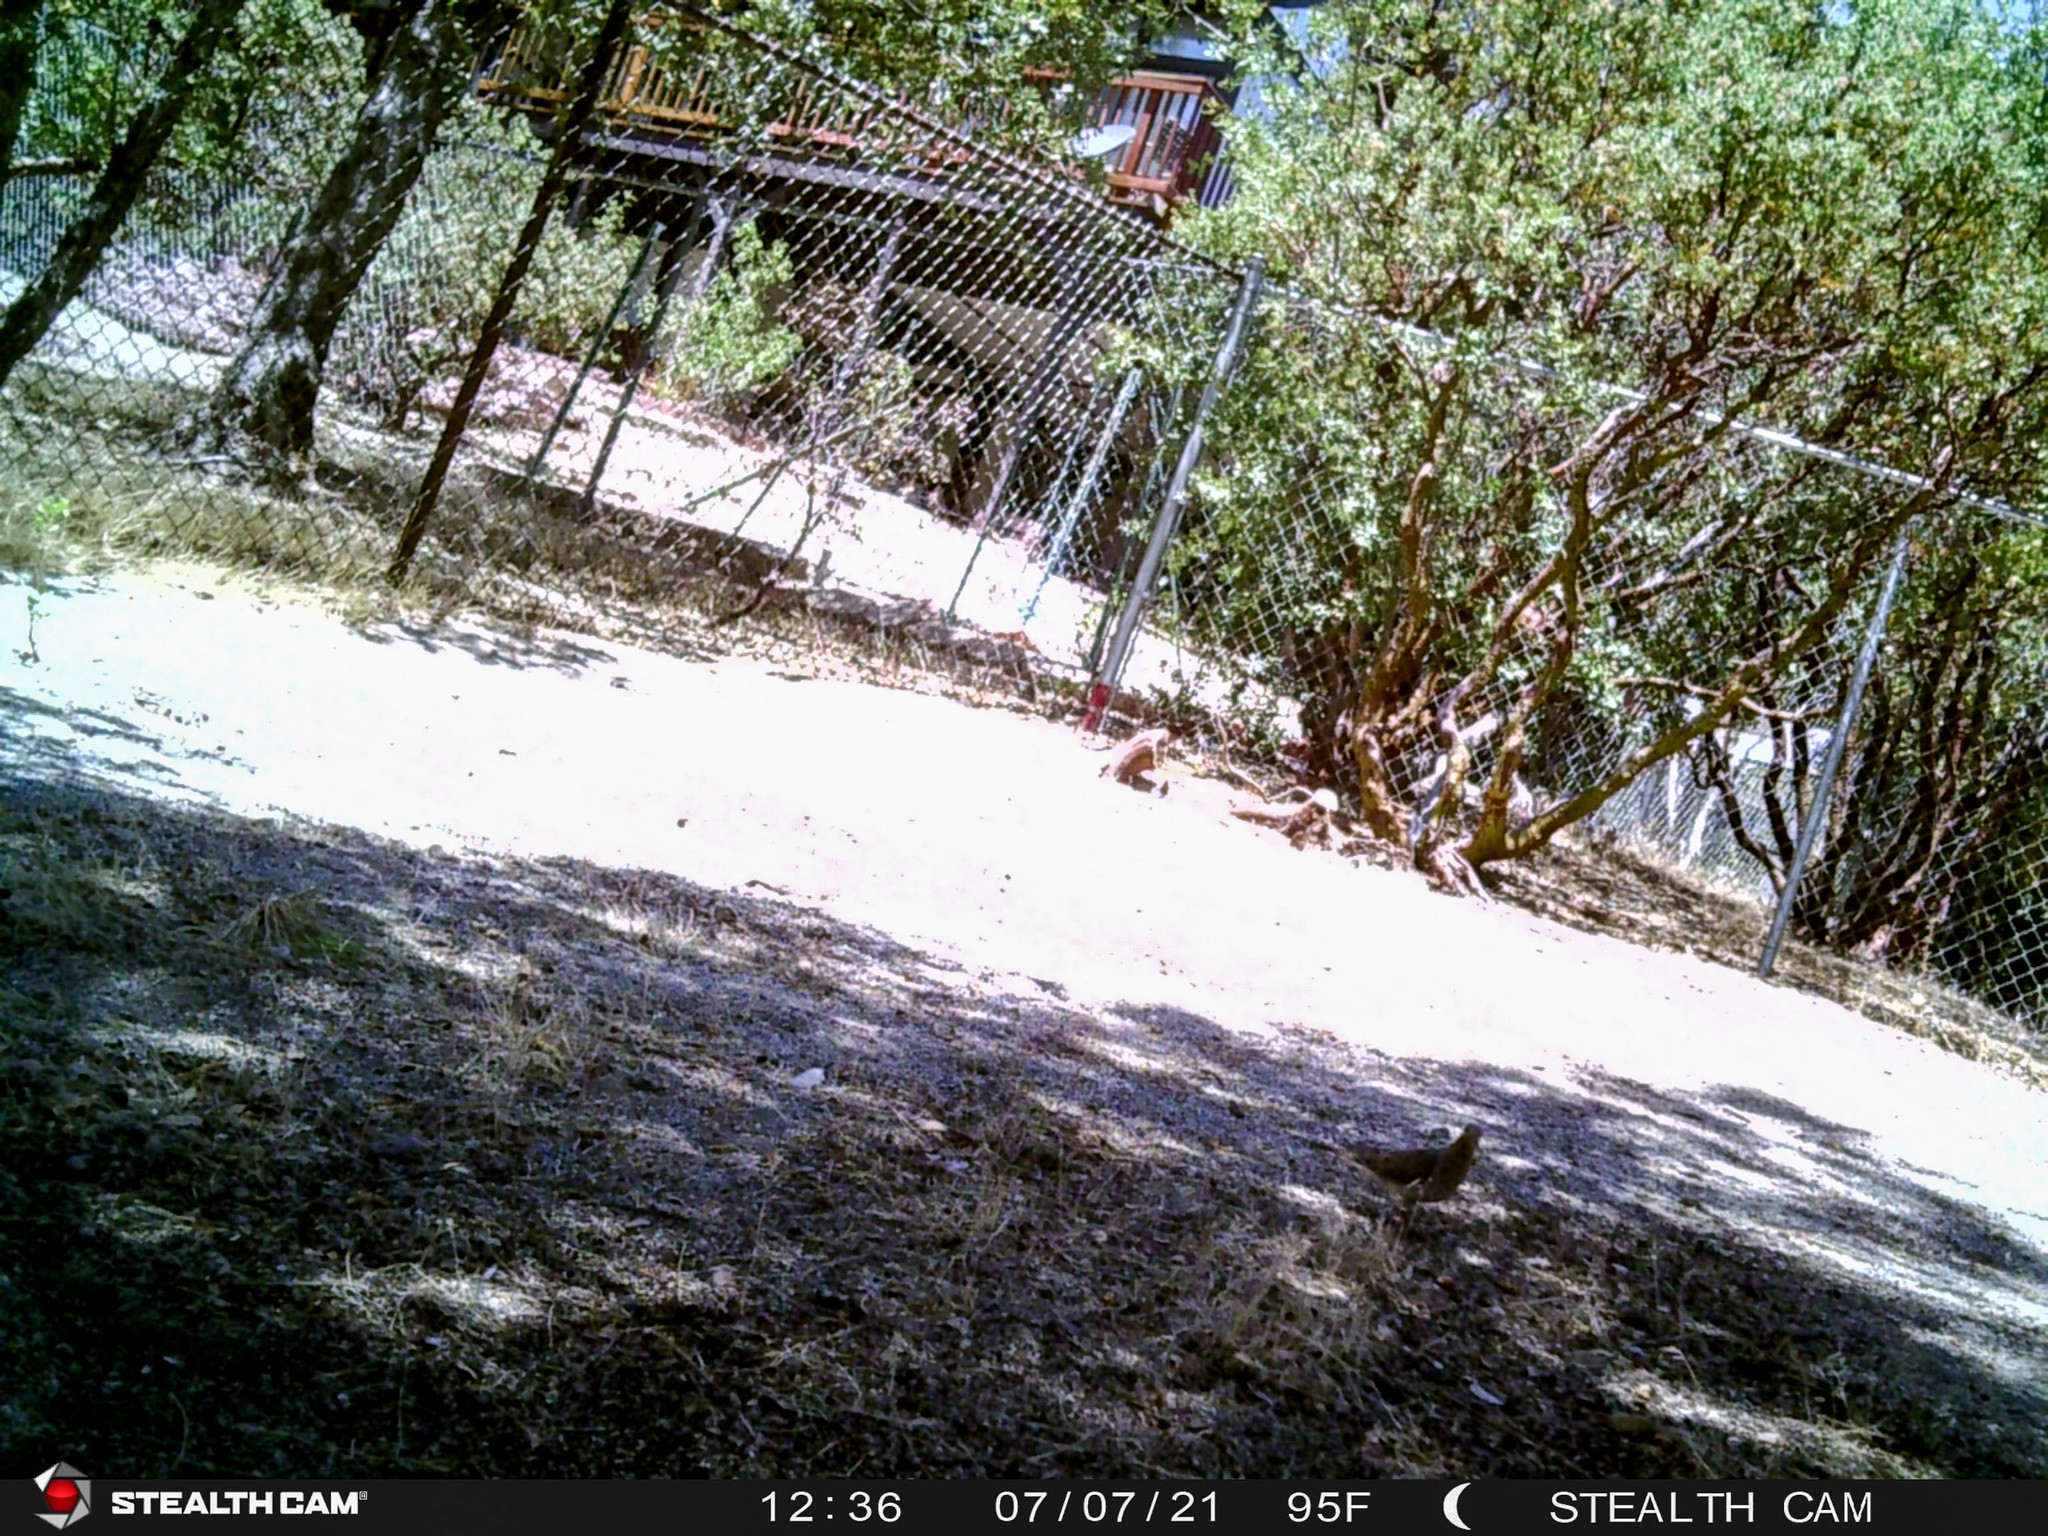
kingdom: Animalia
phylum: Chordata
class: Aves
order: Columbiformes
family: Columbidae
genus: Zenaida
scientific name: Zenaida macroura
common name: Mourning dove
